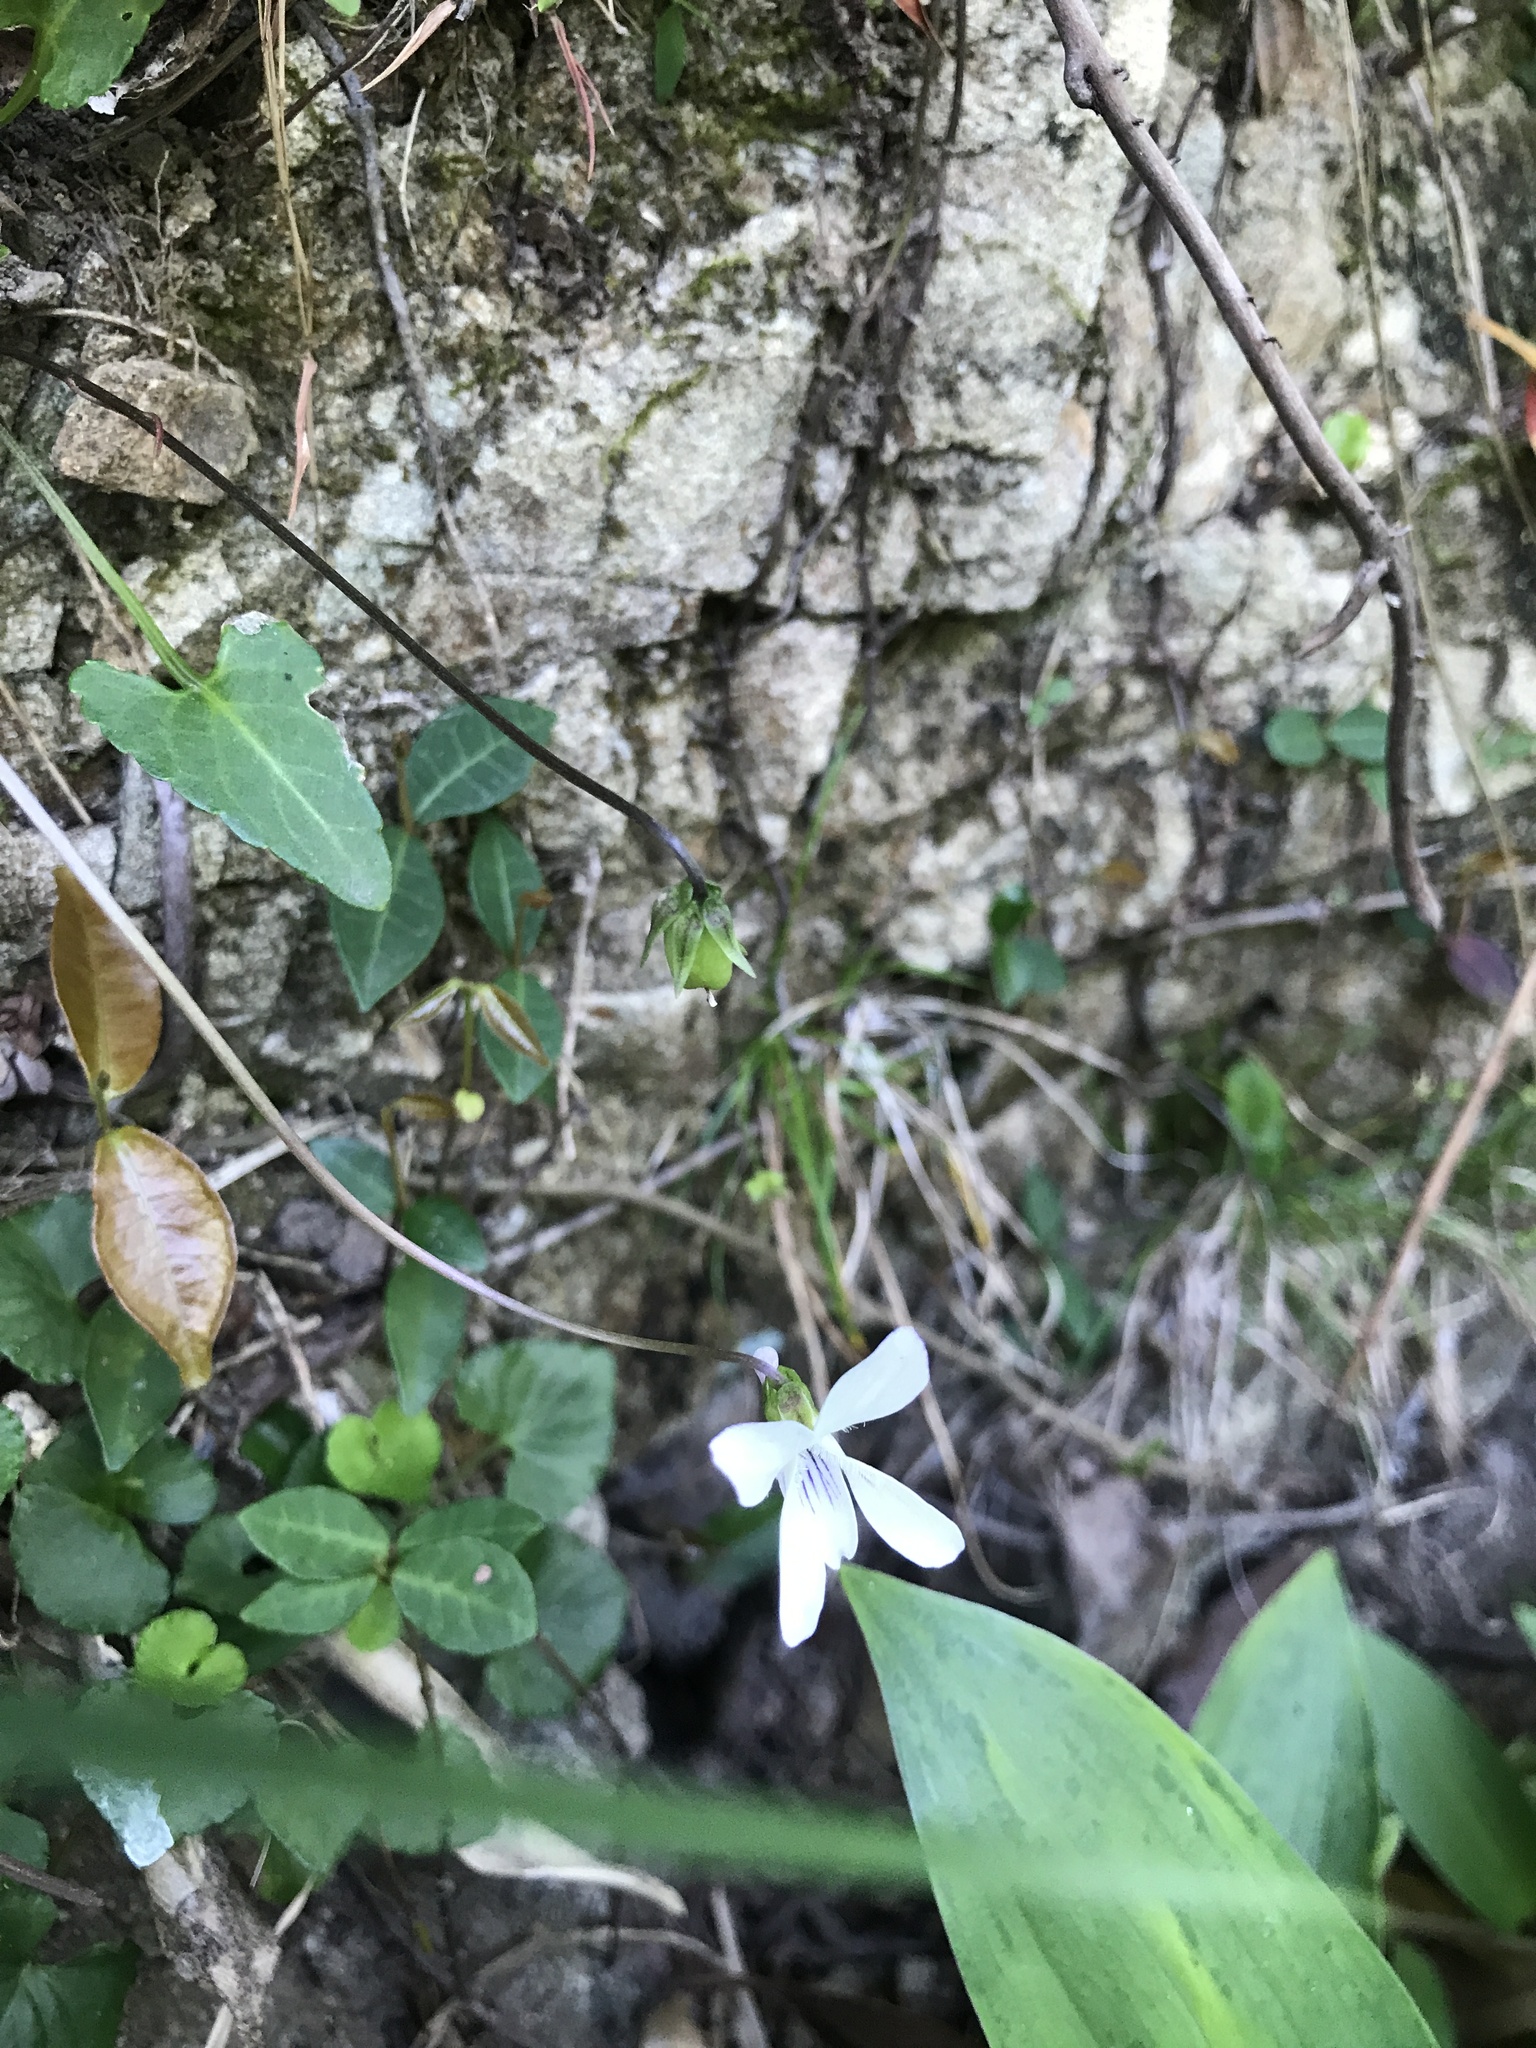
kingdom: Plantae
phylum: Tracheophyta
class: Magnoliopsida
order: Malpighiales
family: Violaceae
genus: Viola
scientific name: Viola inconspicua
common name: Long sepal violet
